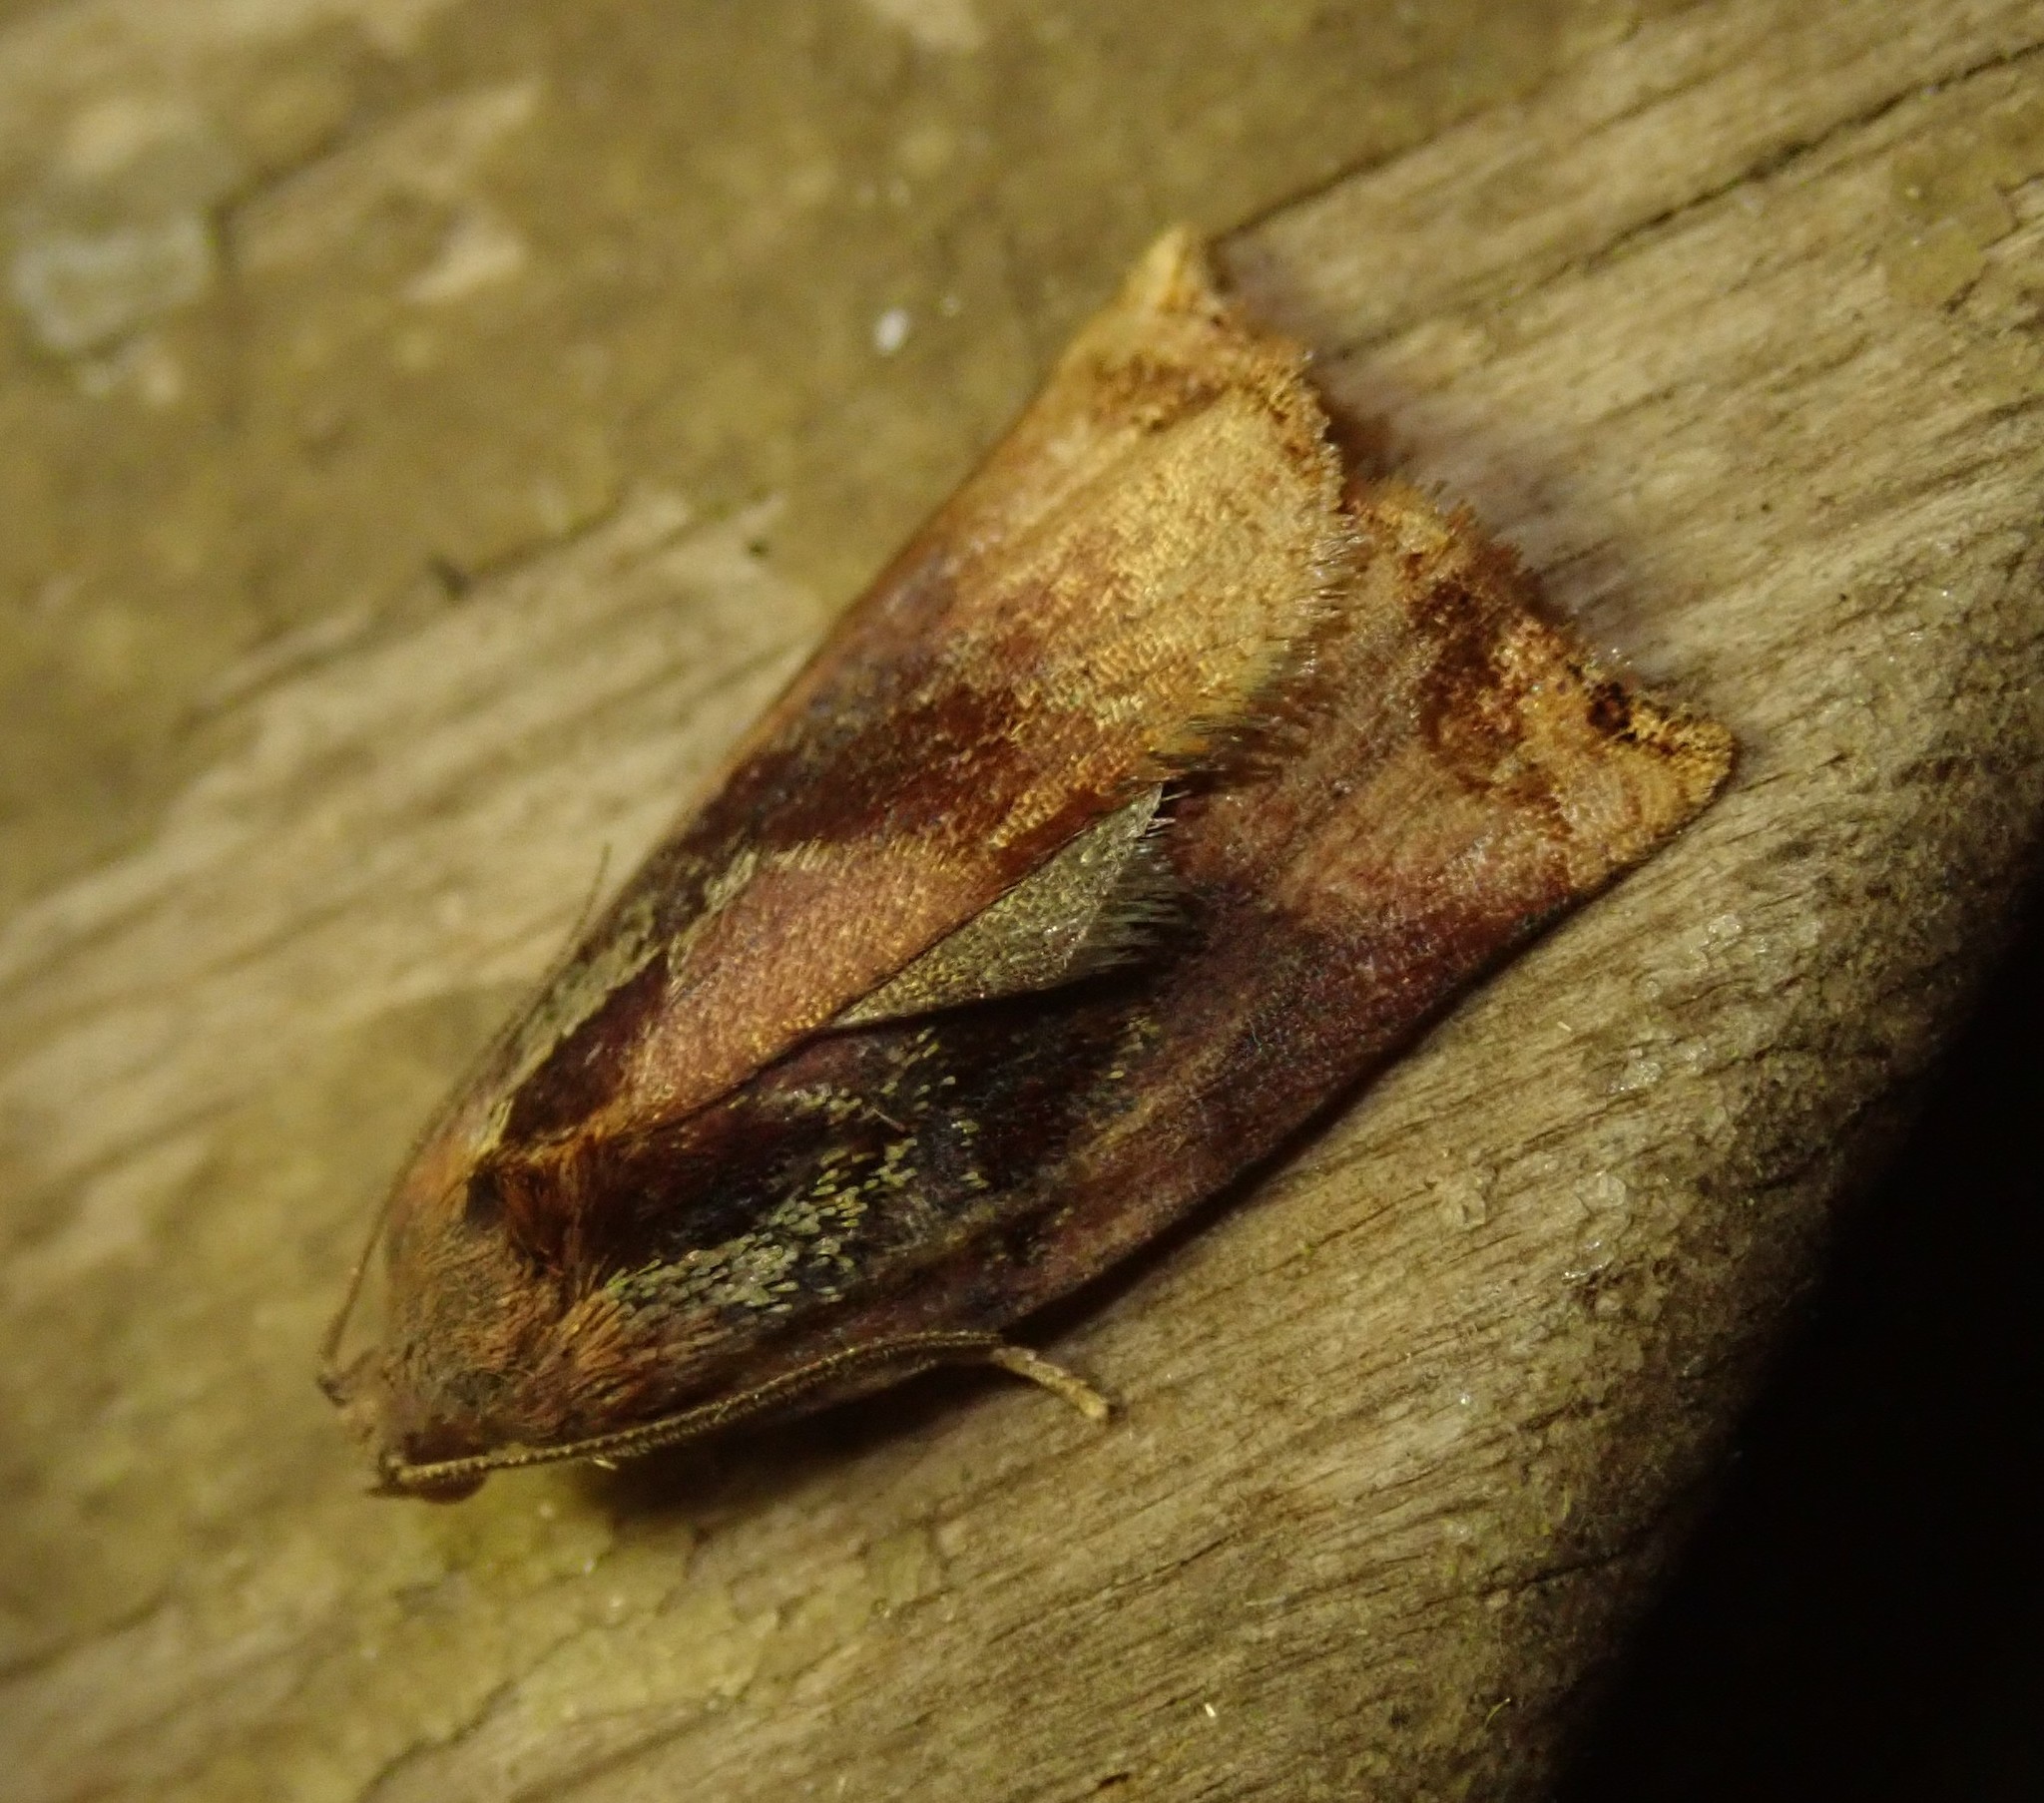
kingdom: Animalia
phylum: Arthropoda
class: Insecta
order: Lepidoptera
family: Tortricidae
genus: Archips
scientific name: Archips podana
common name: Large fruit-tree tortrix
